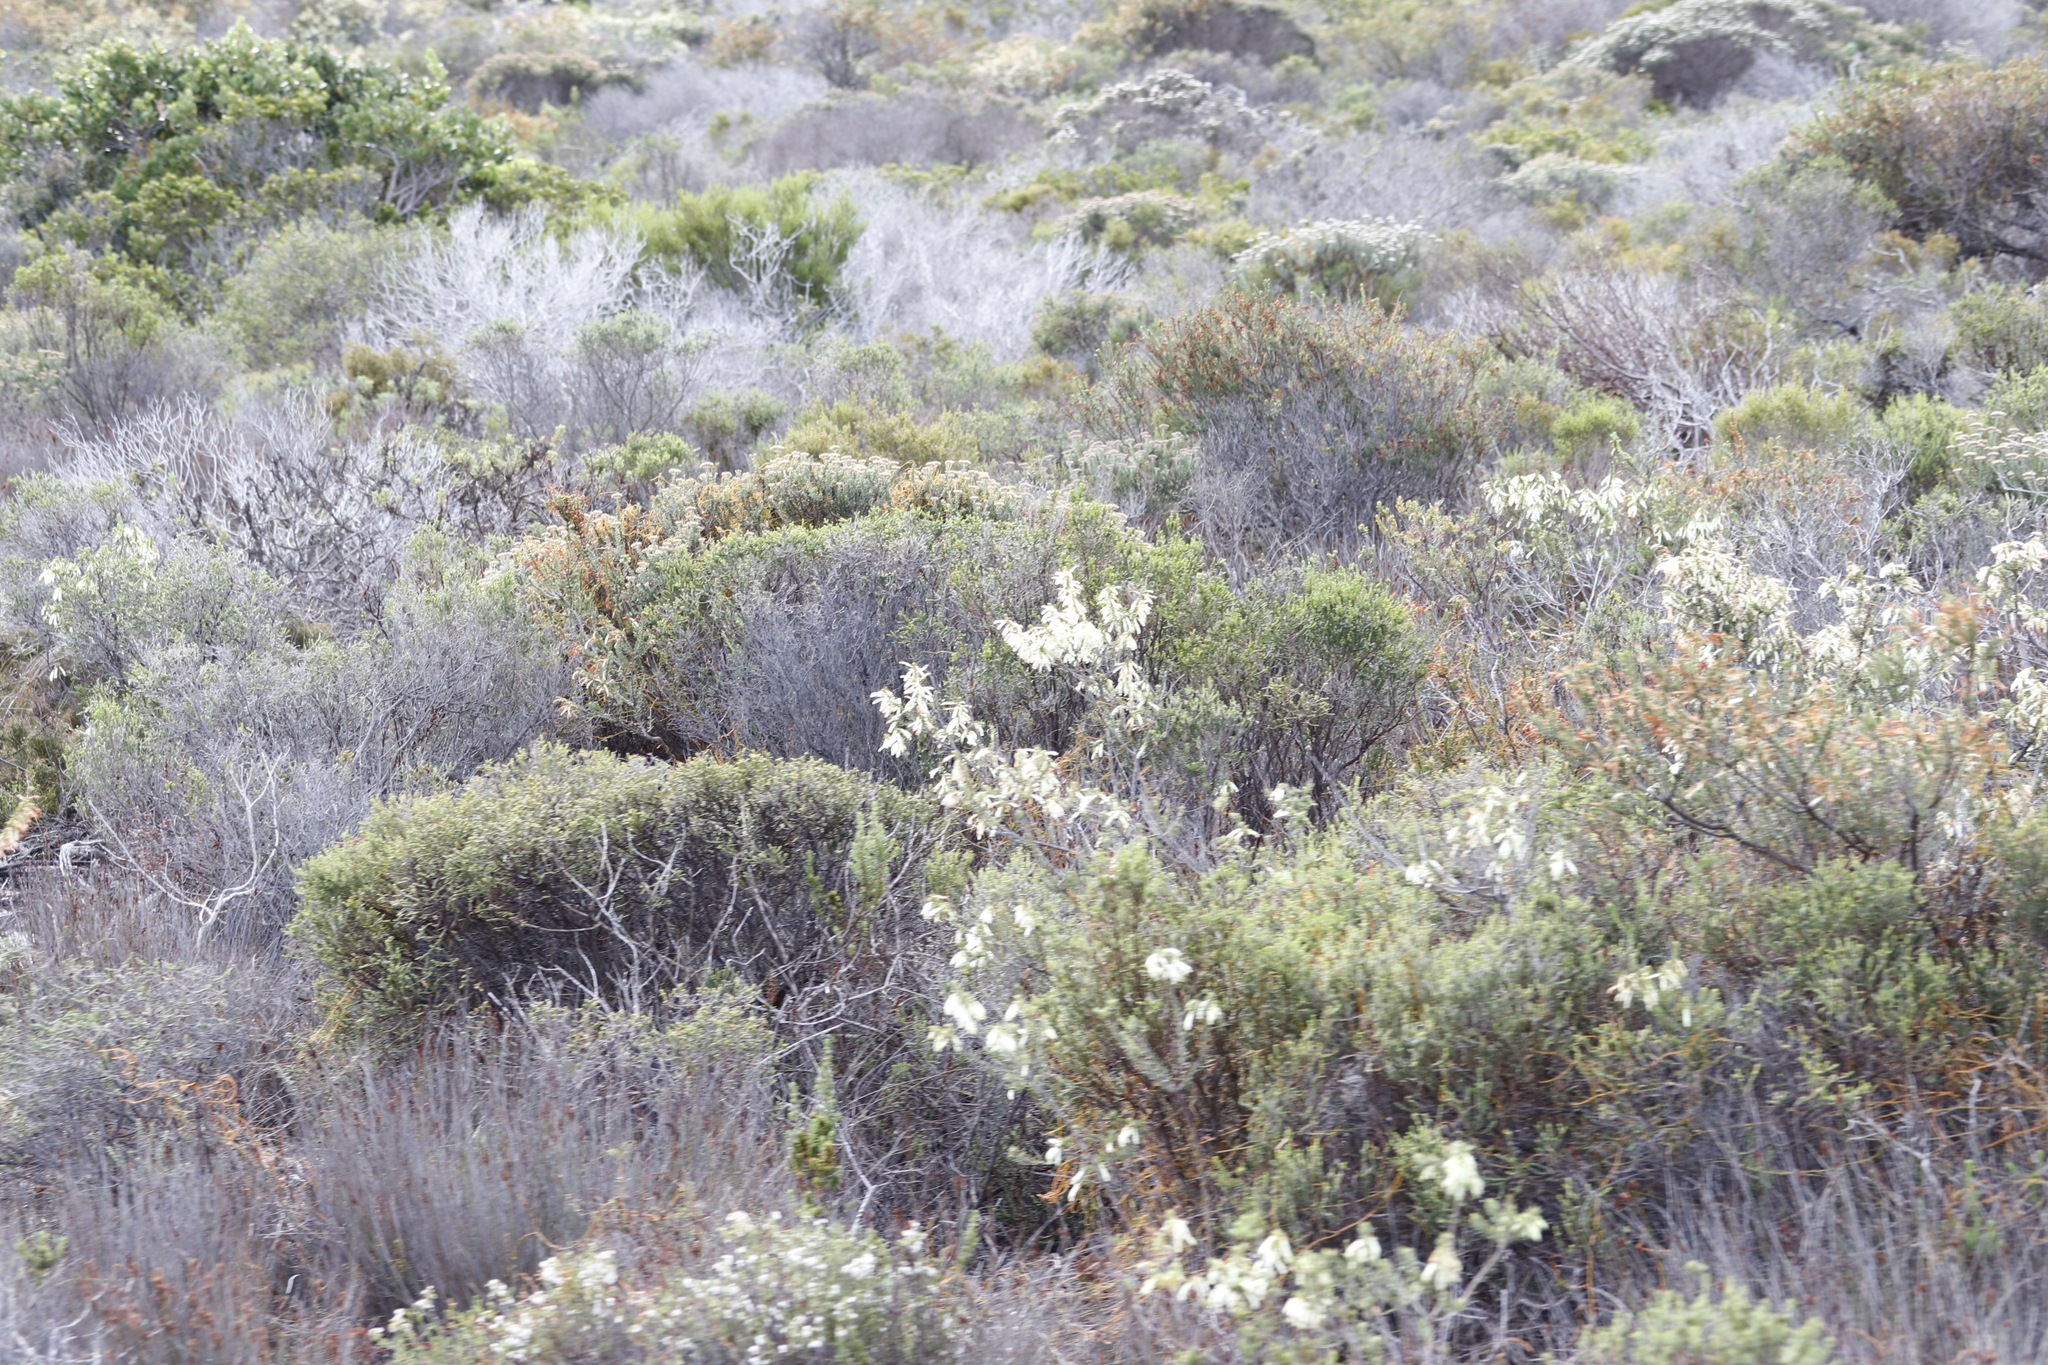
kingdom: Plantae
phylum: Tracheophyta
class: Magnoliopsida
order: Ericales
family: Ericaceae
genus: Erica
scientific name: Erica mammosa
